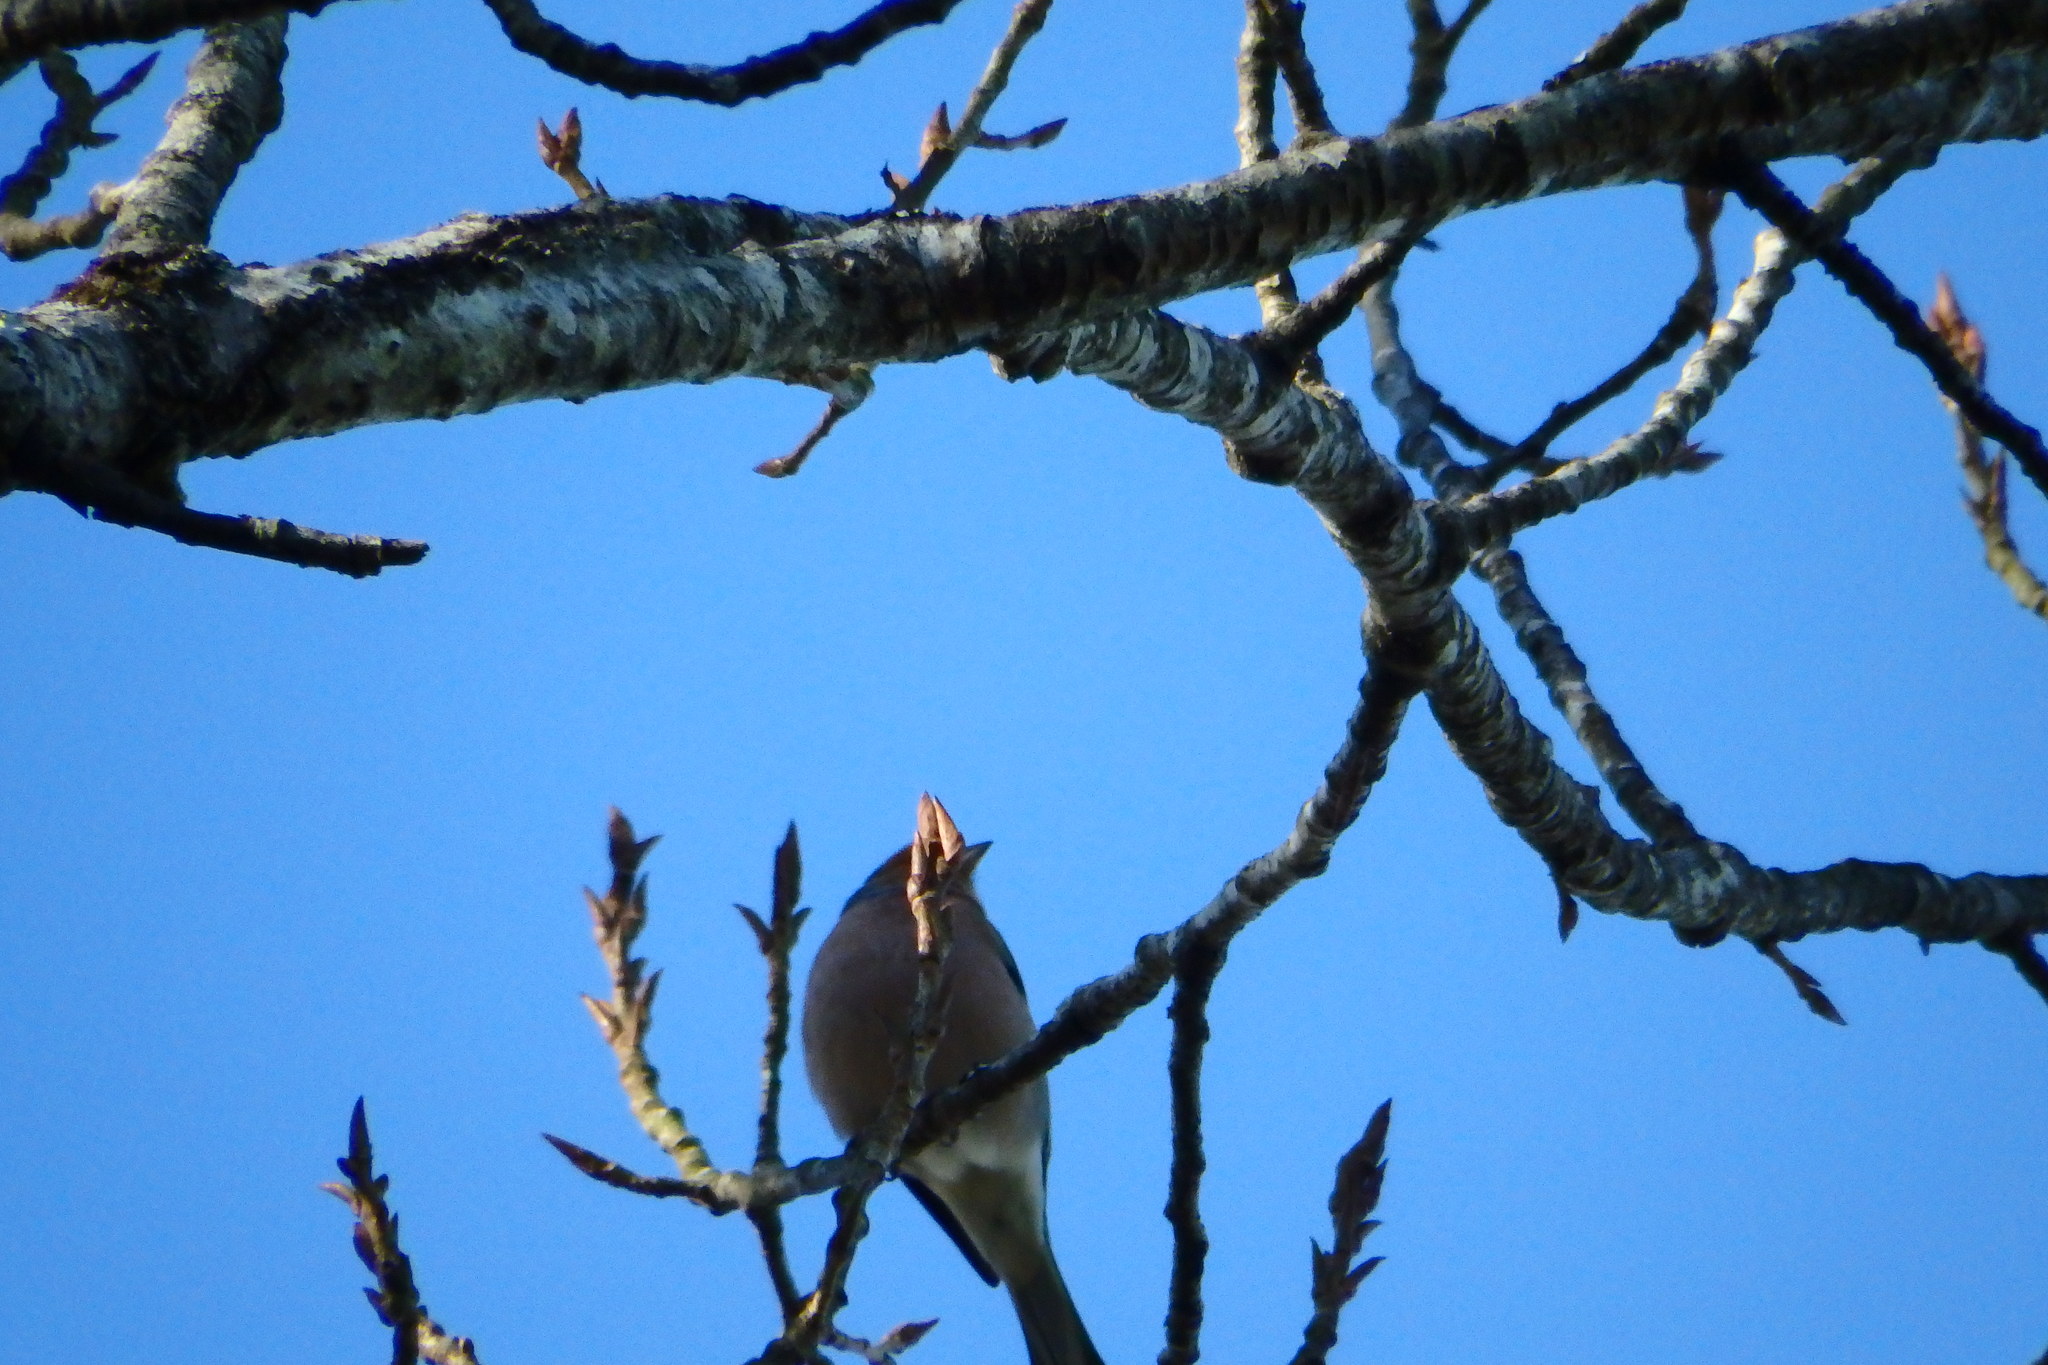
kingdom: Animalia
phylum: Chordata
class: Aves
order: Passeriformes
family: Fringillidae
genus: Fringilla
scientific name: Fringilla coelebs
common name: Common chaffinch
